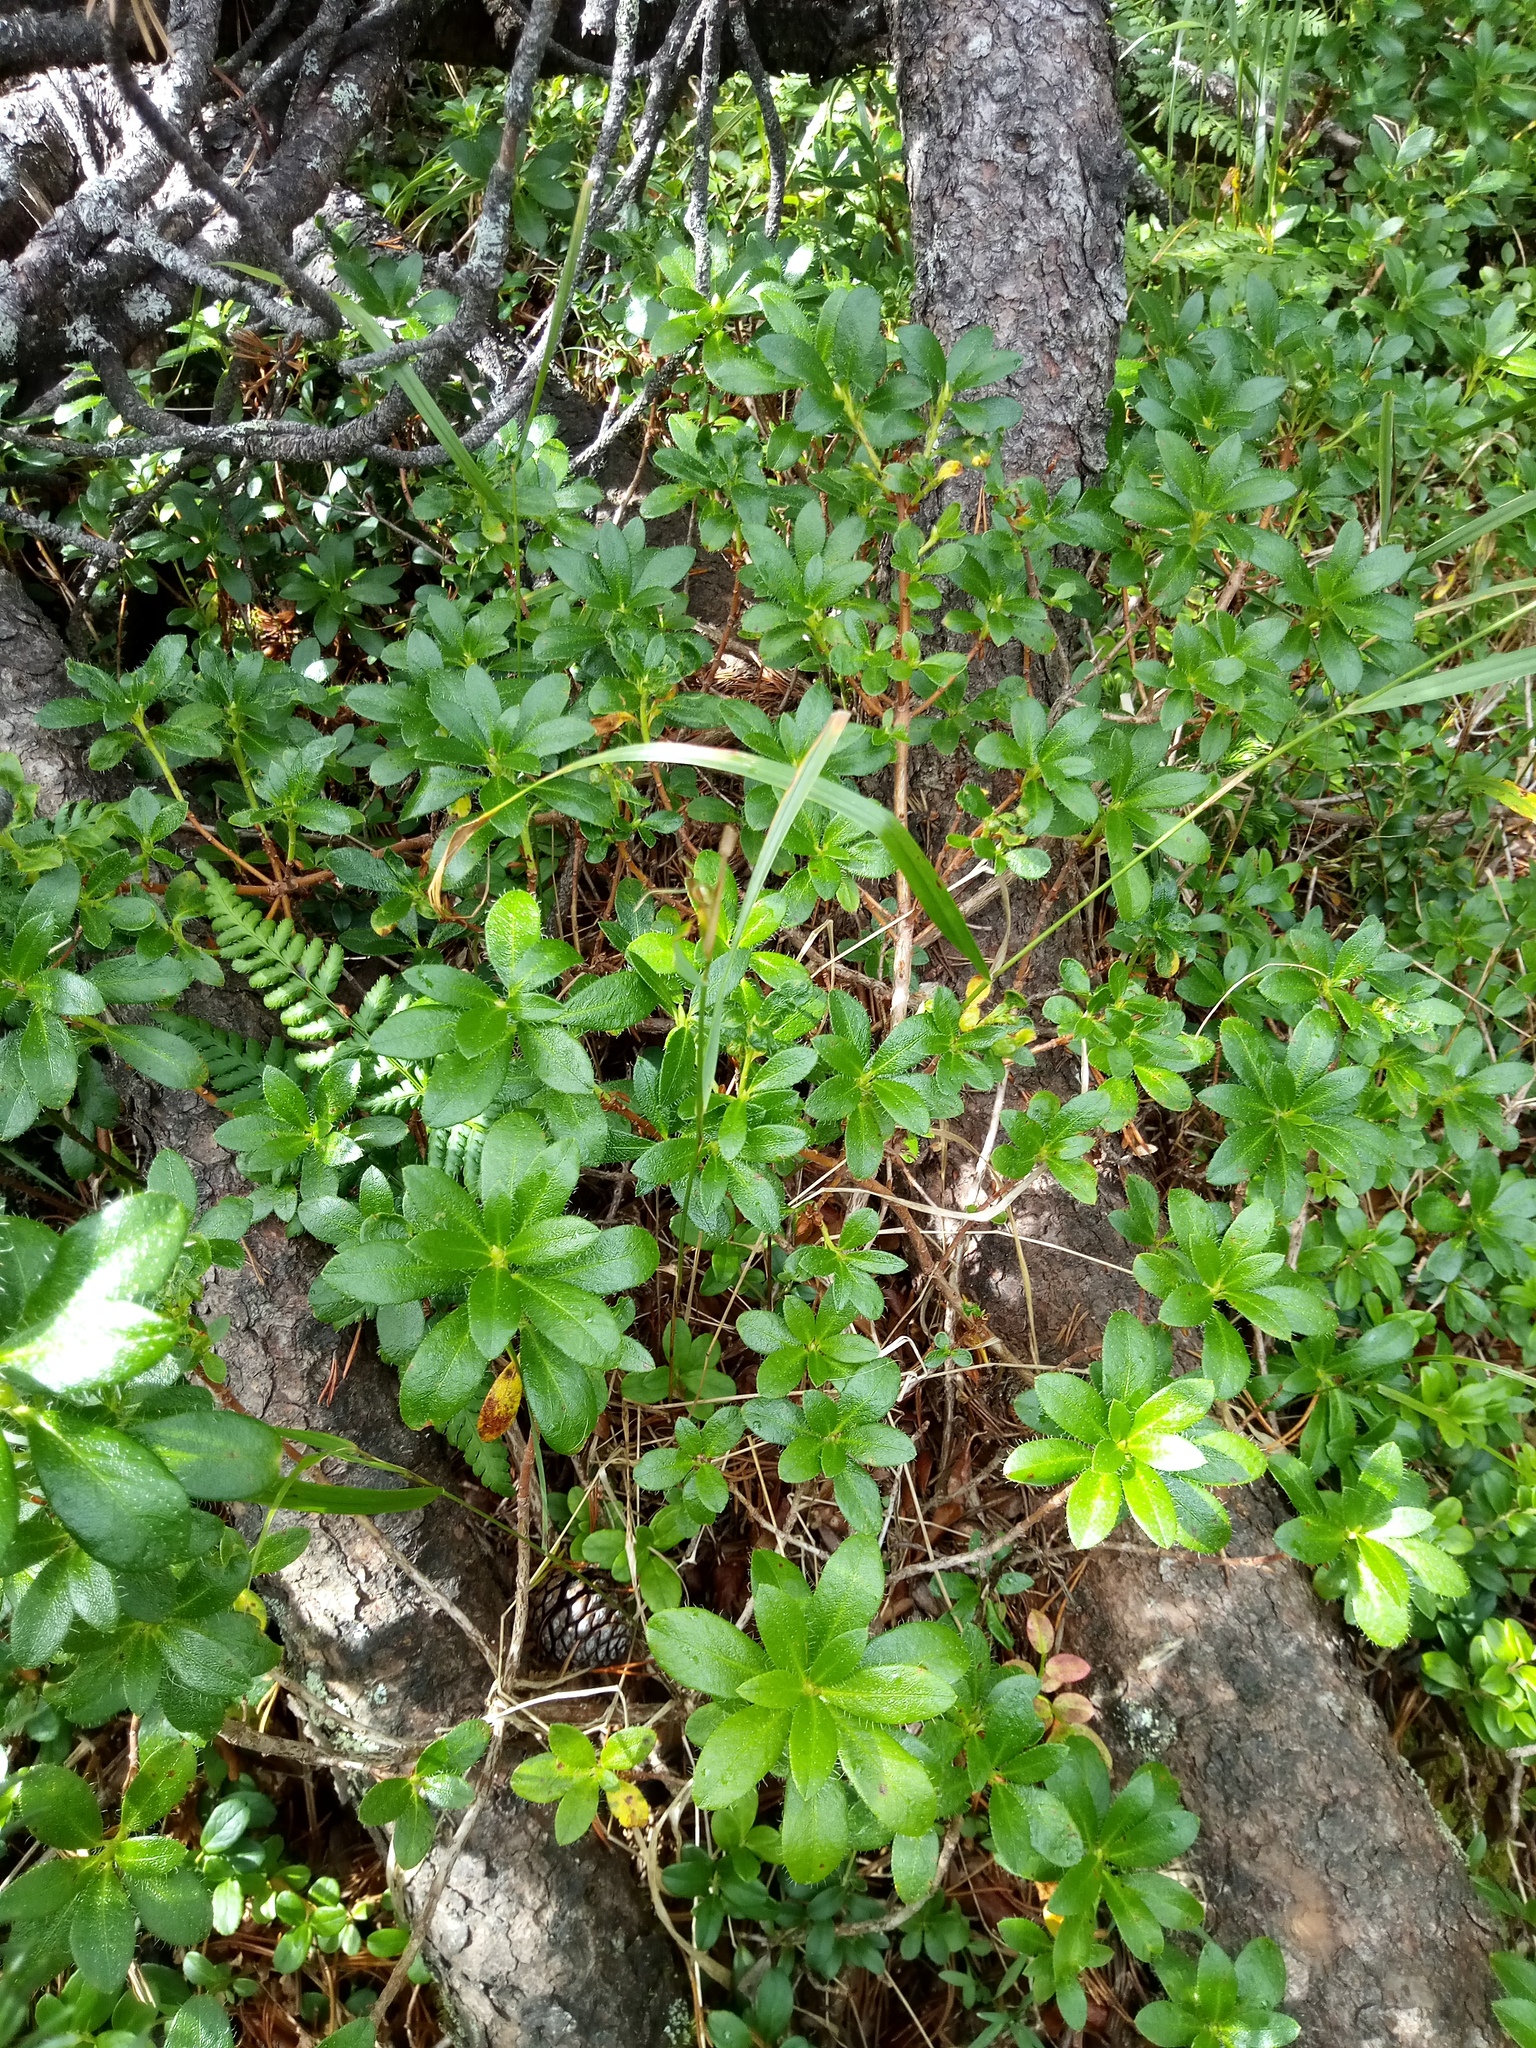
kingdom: Plantae
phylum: Tracheophyta
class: Magnoliopsida
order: Ericales
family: Ericaceae
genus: Rhododendron
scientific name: Rhododendron hirsutum
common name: Hairy alpenrose
